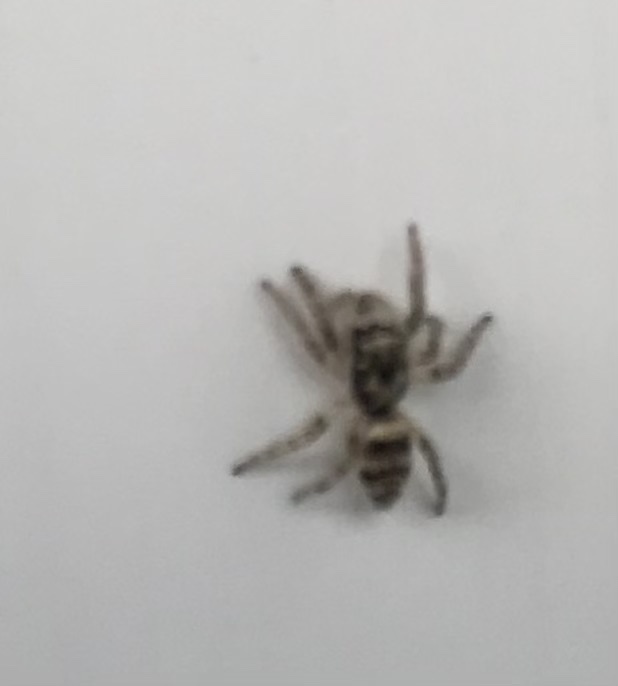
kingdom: Animalia
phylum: Arthropoda
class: Arachnida
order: Araneae
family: Salticidae
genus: Salticus
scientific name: Salticus scenicus
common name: Zebra jumper
